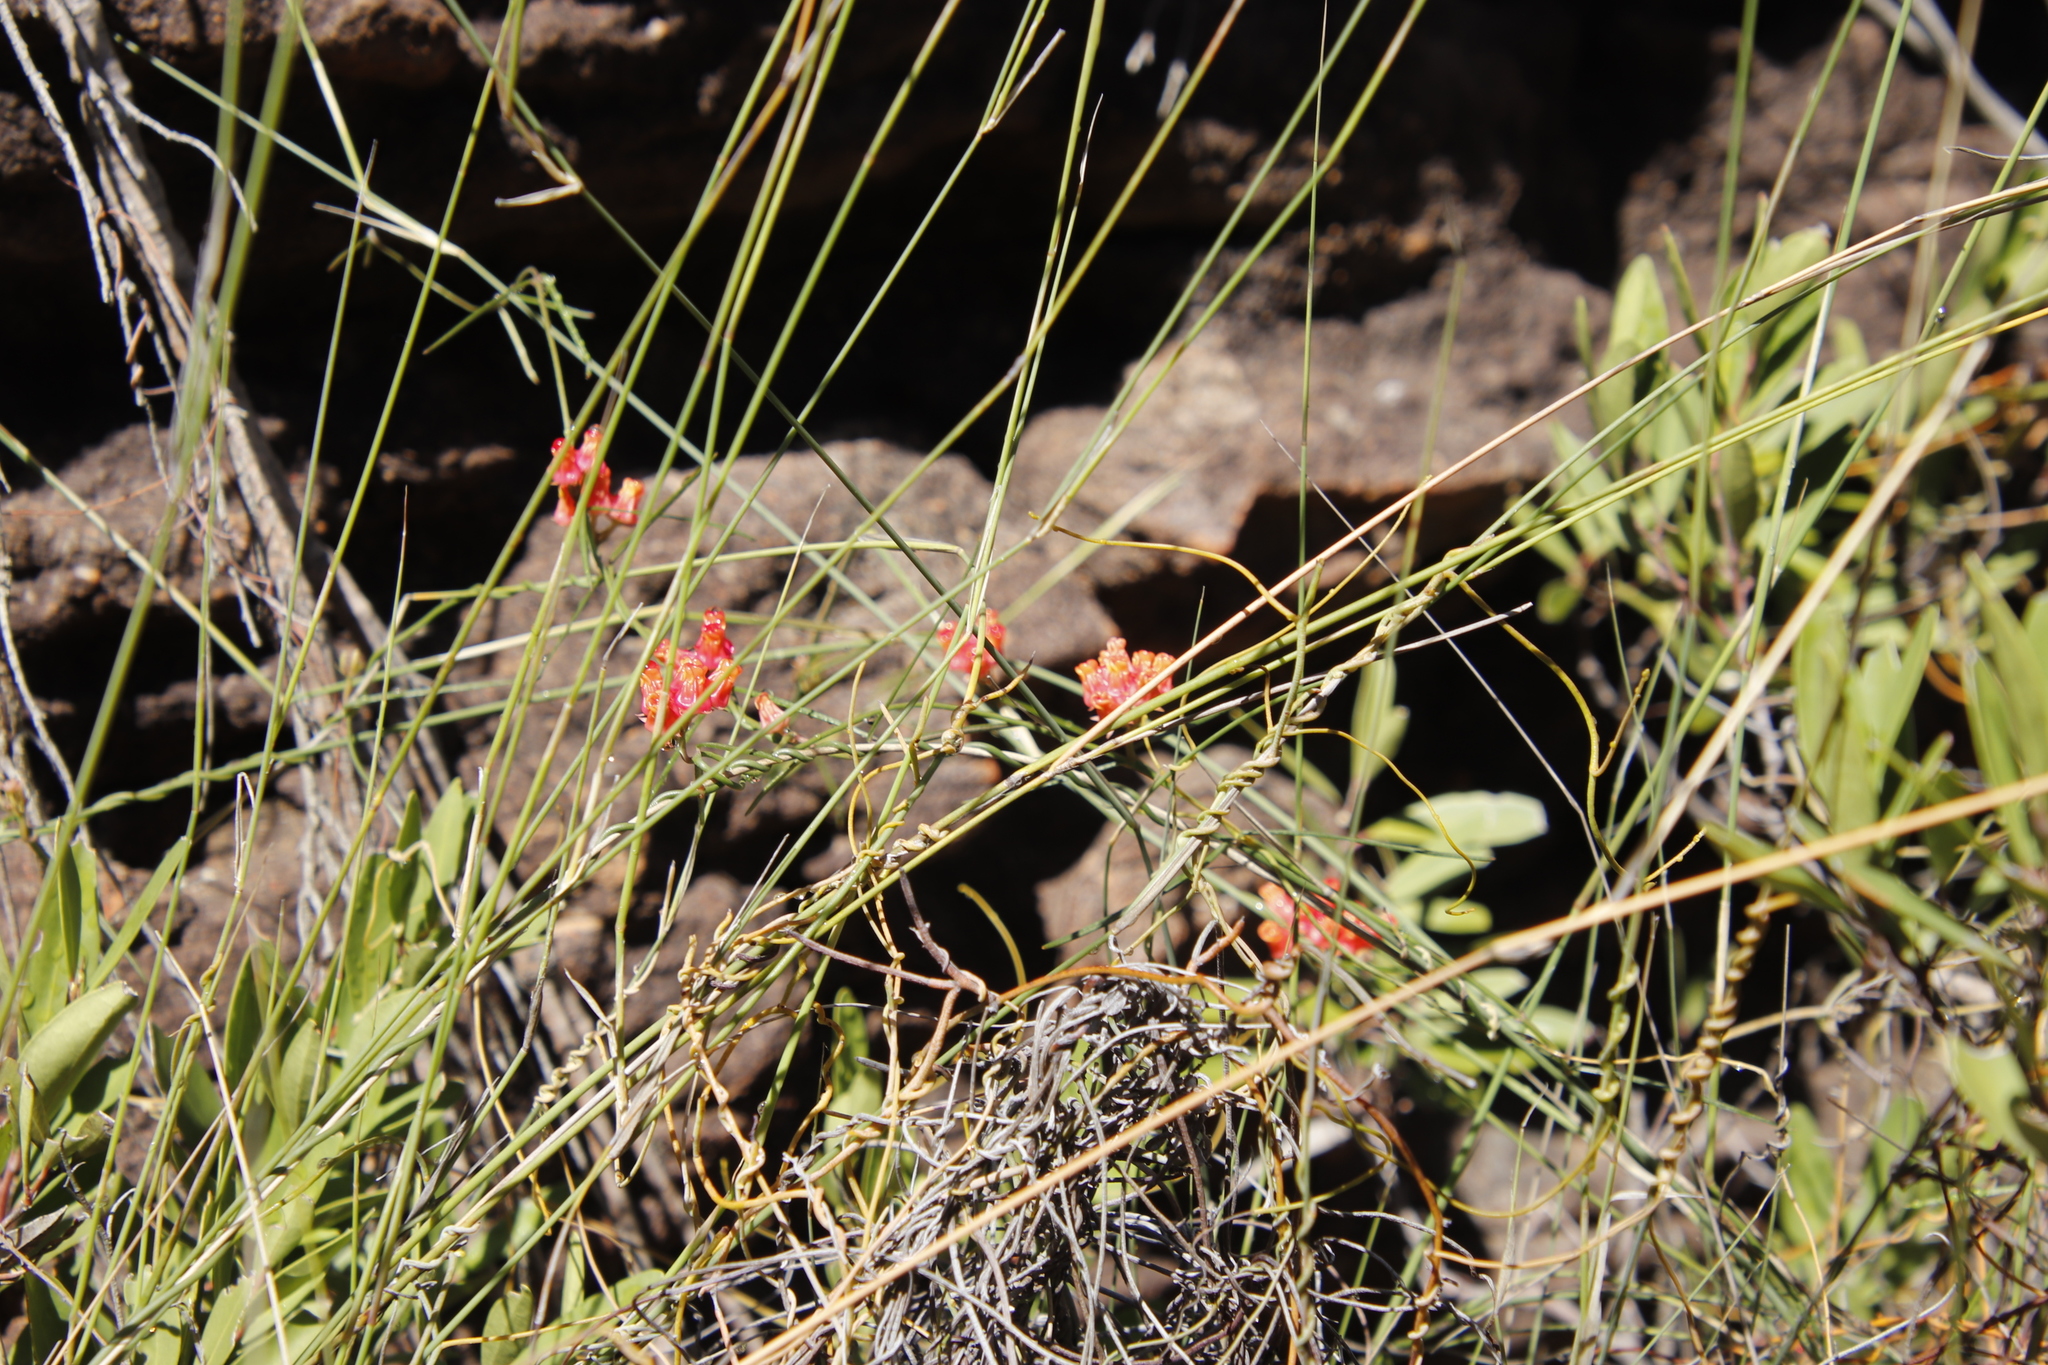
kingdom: Plantae
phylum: Tracheophyta
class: Magnoliopsida
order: Gentianales
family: Apocynaceae
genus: Microloma
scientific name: Microloma tenuifolium
